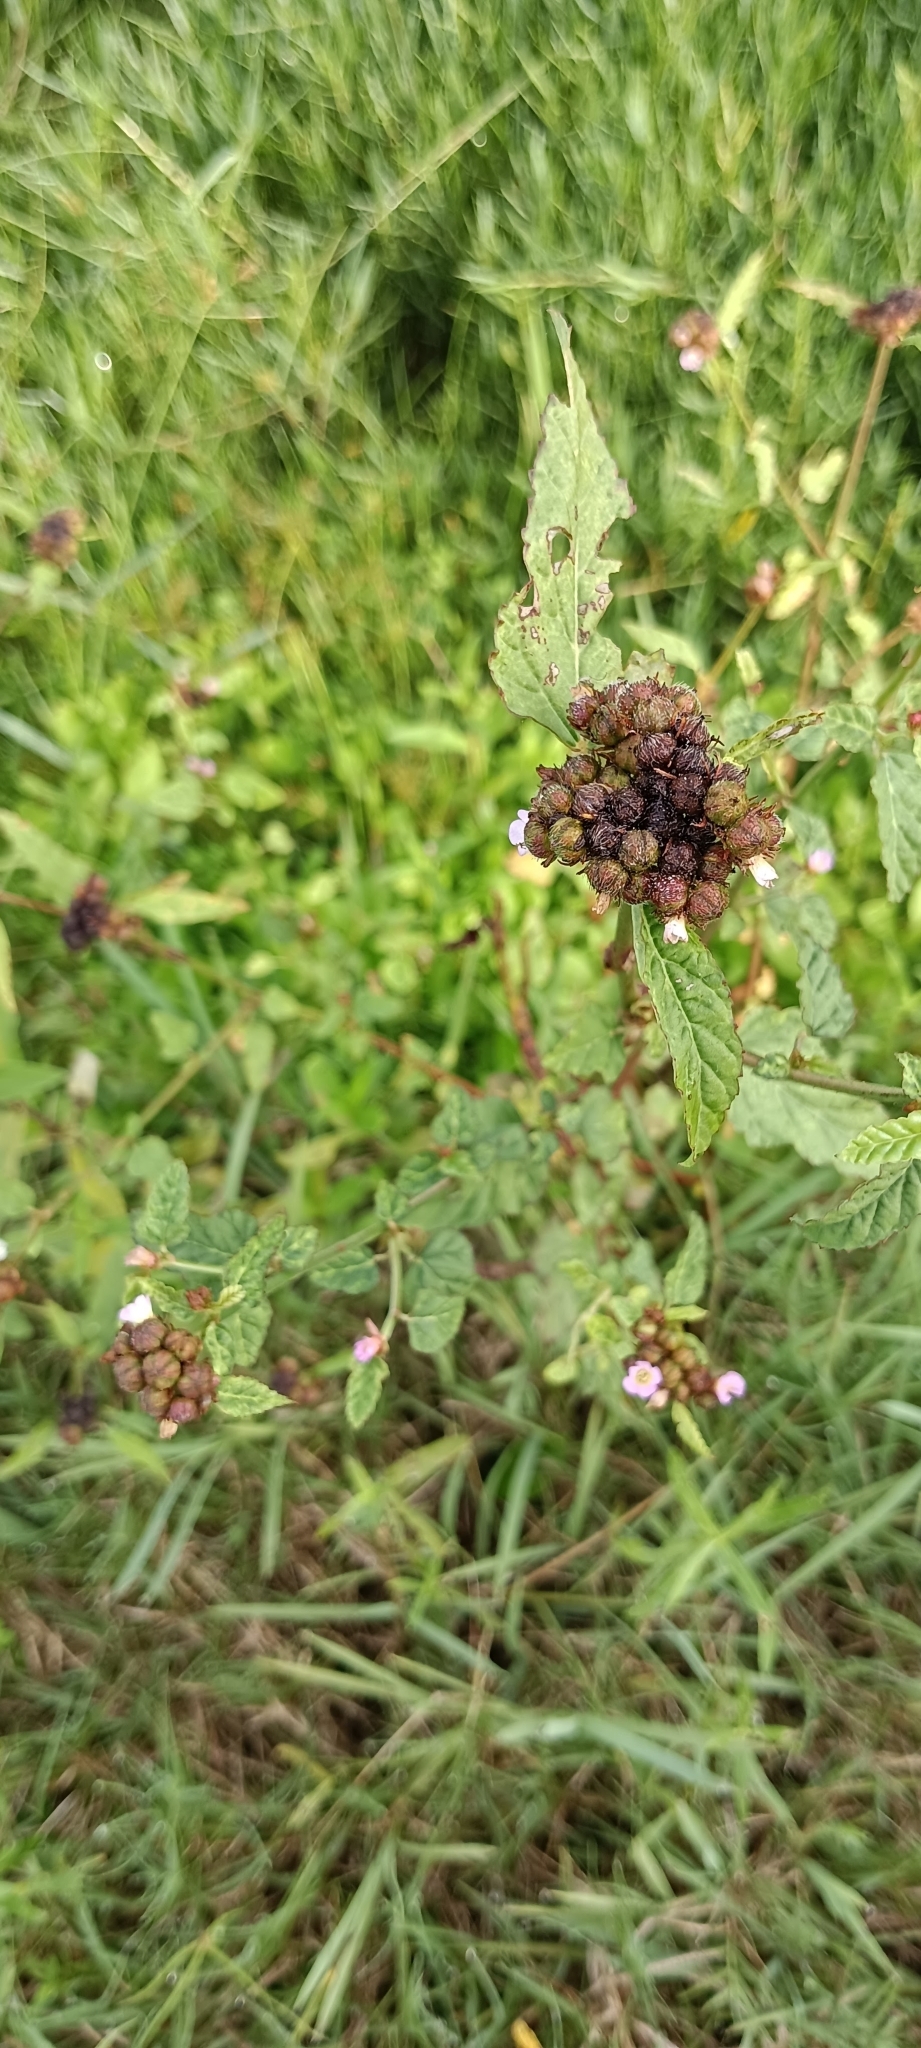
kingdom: Plantae
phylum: Tracheophyta
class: Magnoliopsida
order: Malvales
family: Malvaceae
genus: Melochia
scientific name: Melochia corchorifolia
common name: Chocolateweed
